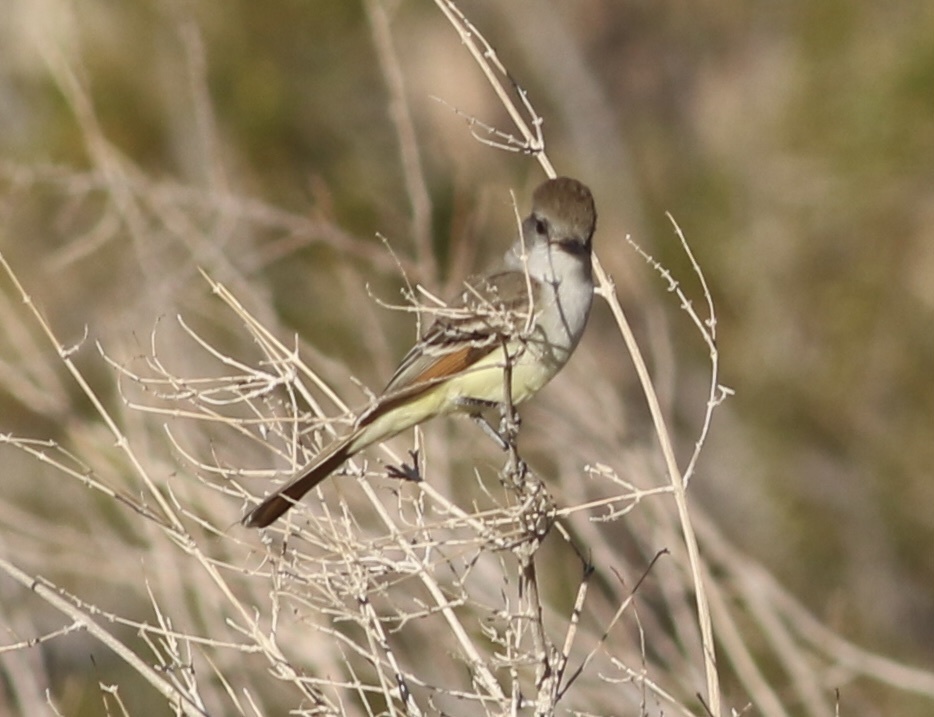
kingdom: Animalia
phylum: Chordata
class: Aves
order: Passeriformes
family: Tyrannidae
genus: Myiarchus
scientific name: Myiarchus cinerascens
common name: Ash-throated flycatcher
